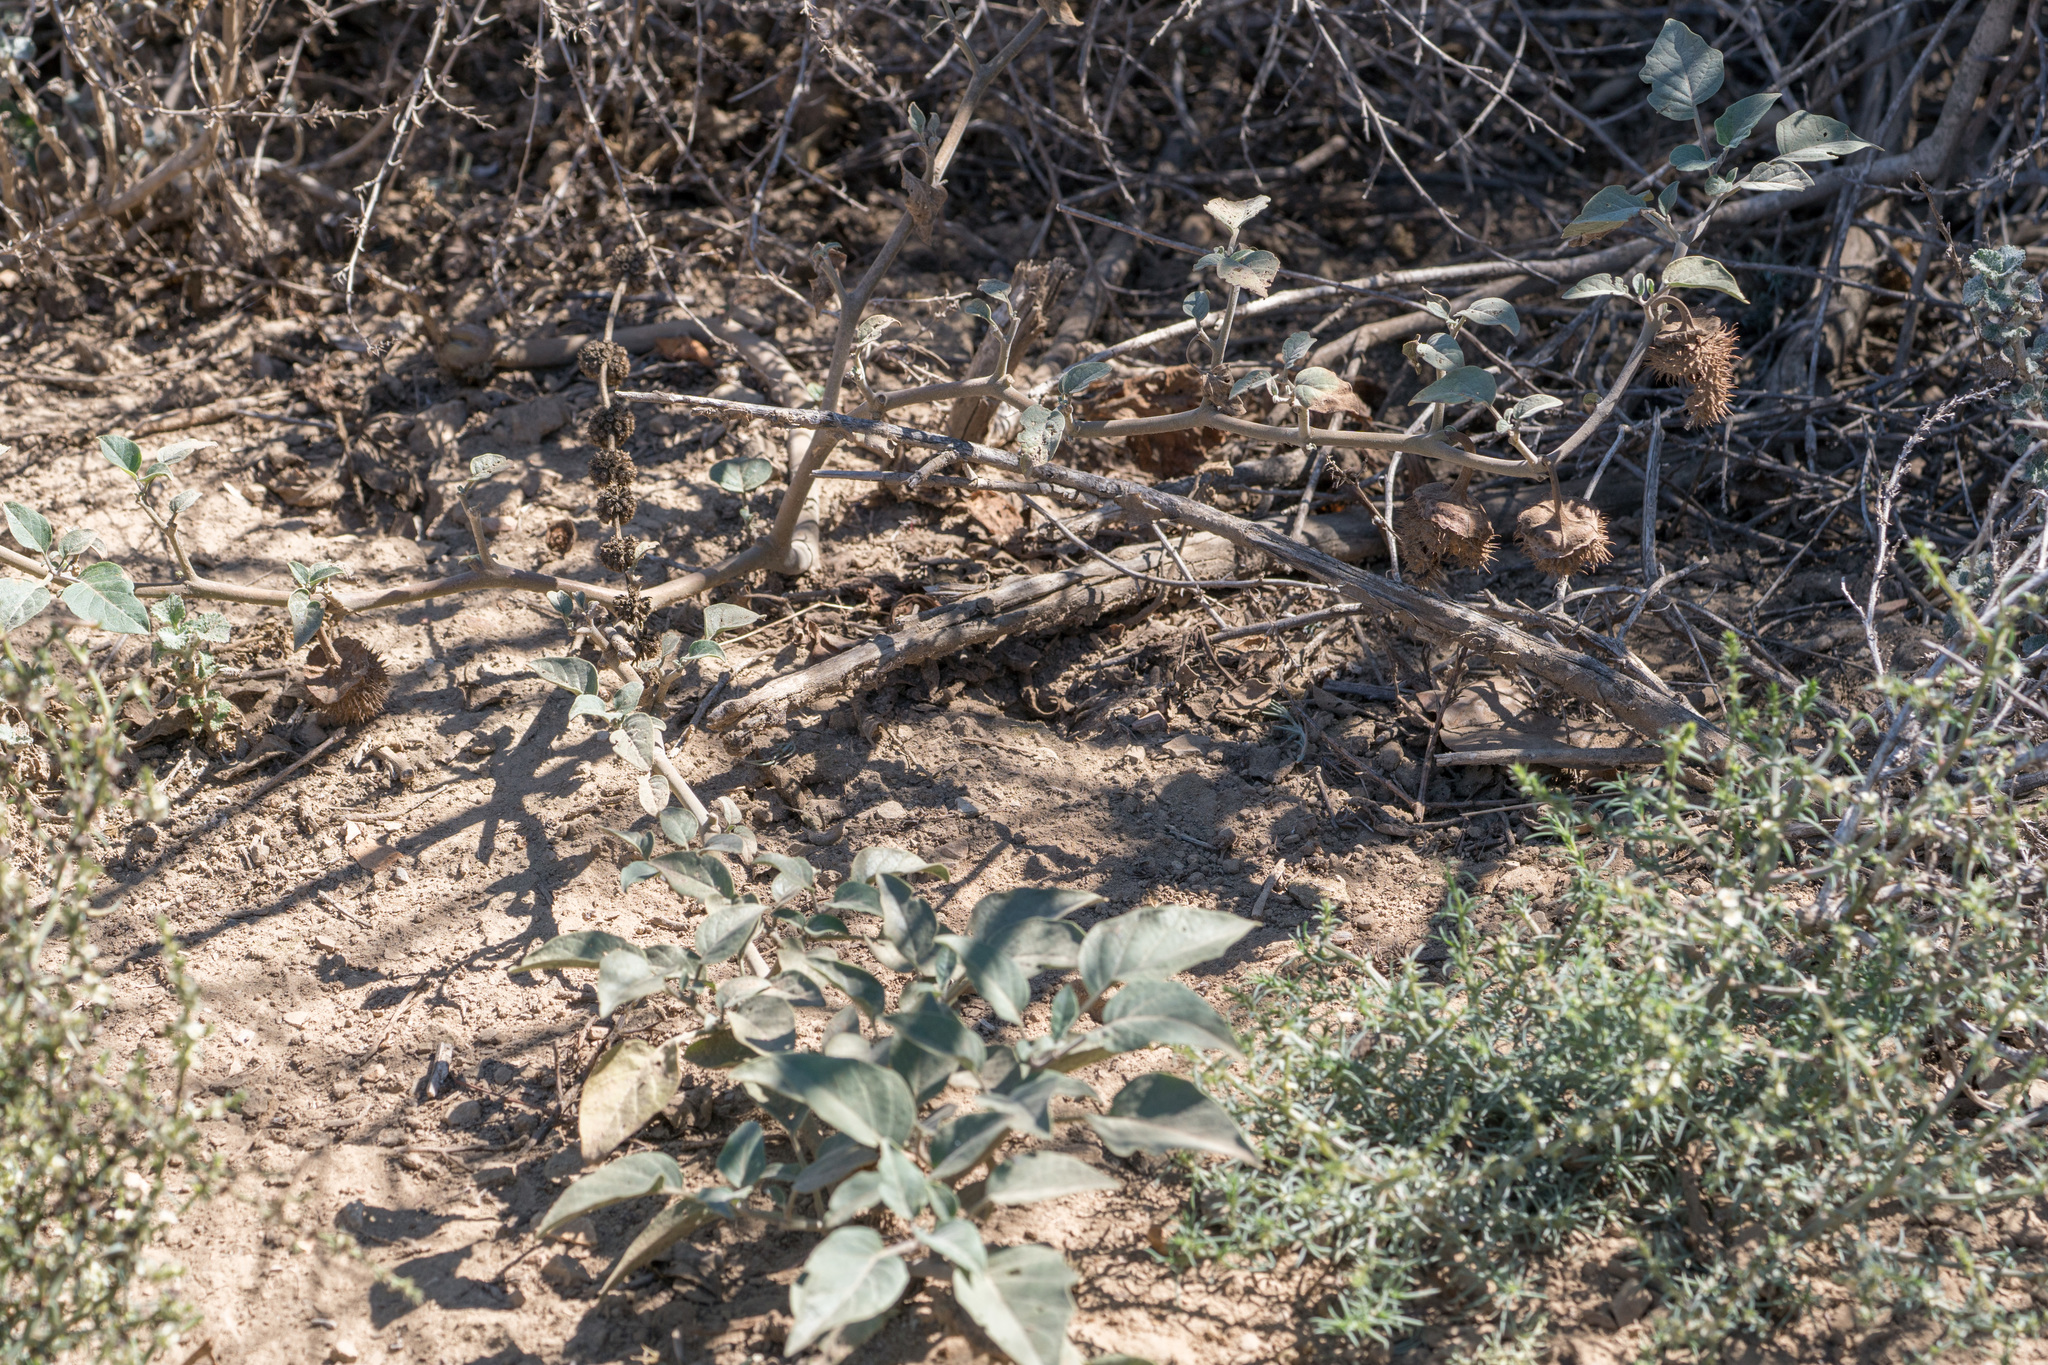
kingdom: Plantae
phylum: Tracheophyta
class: Magnoliopsida
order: Solanales
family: Solanaceae
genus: Datura
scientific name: Datura wrightii
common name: Sacred thorn-apple
